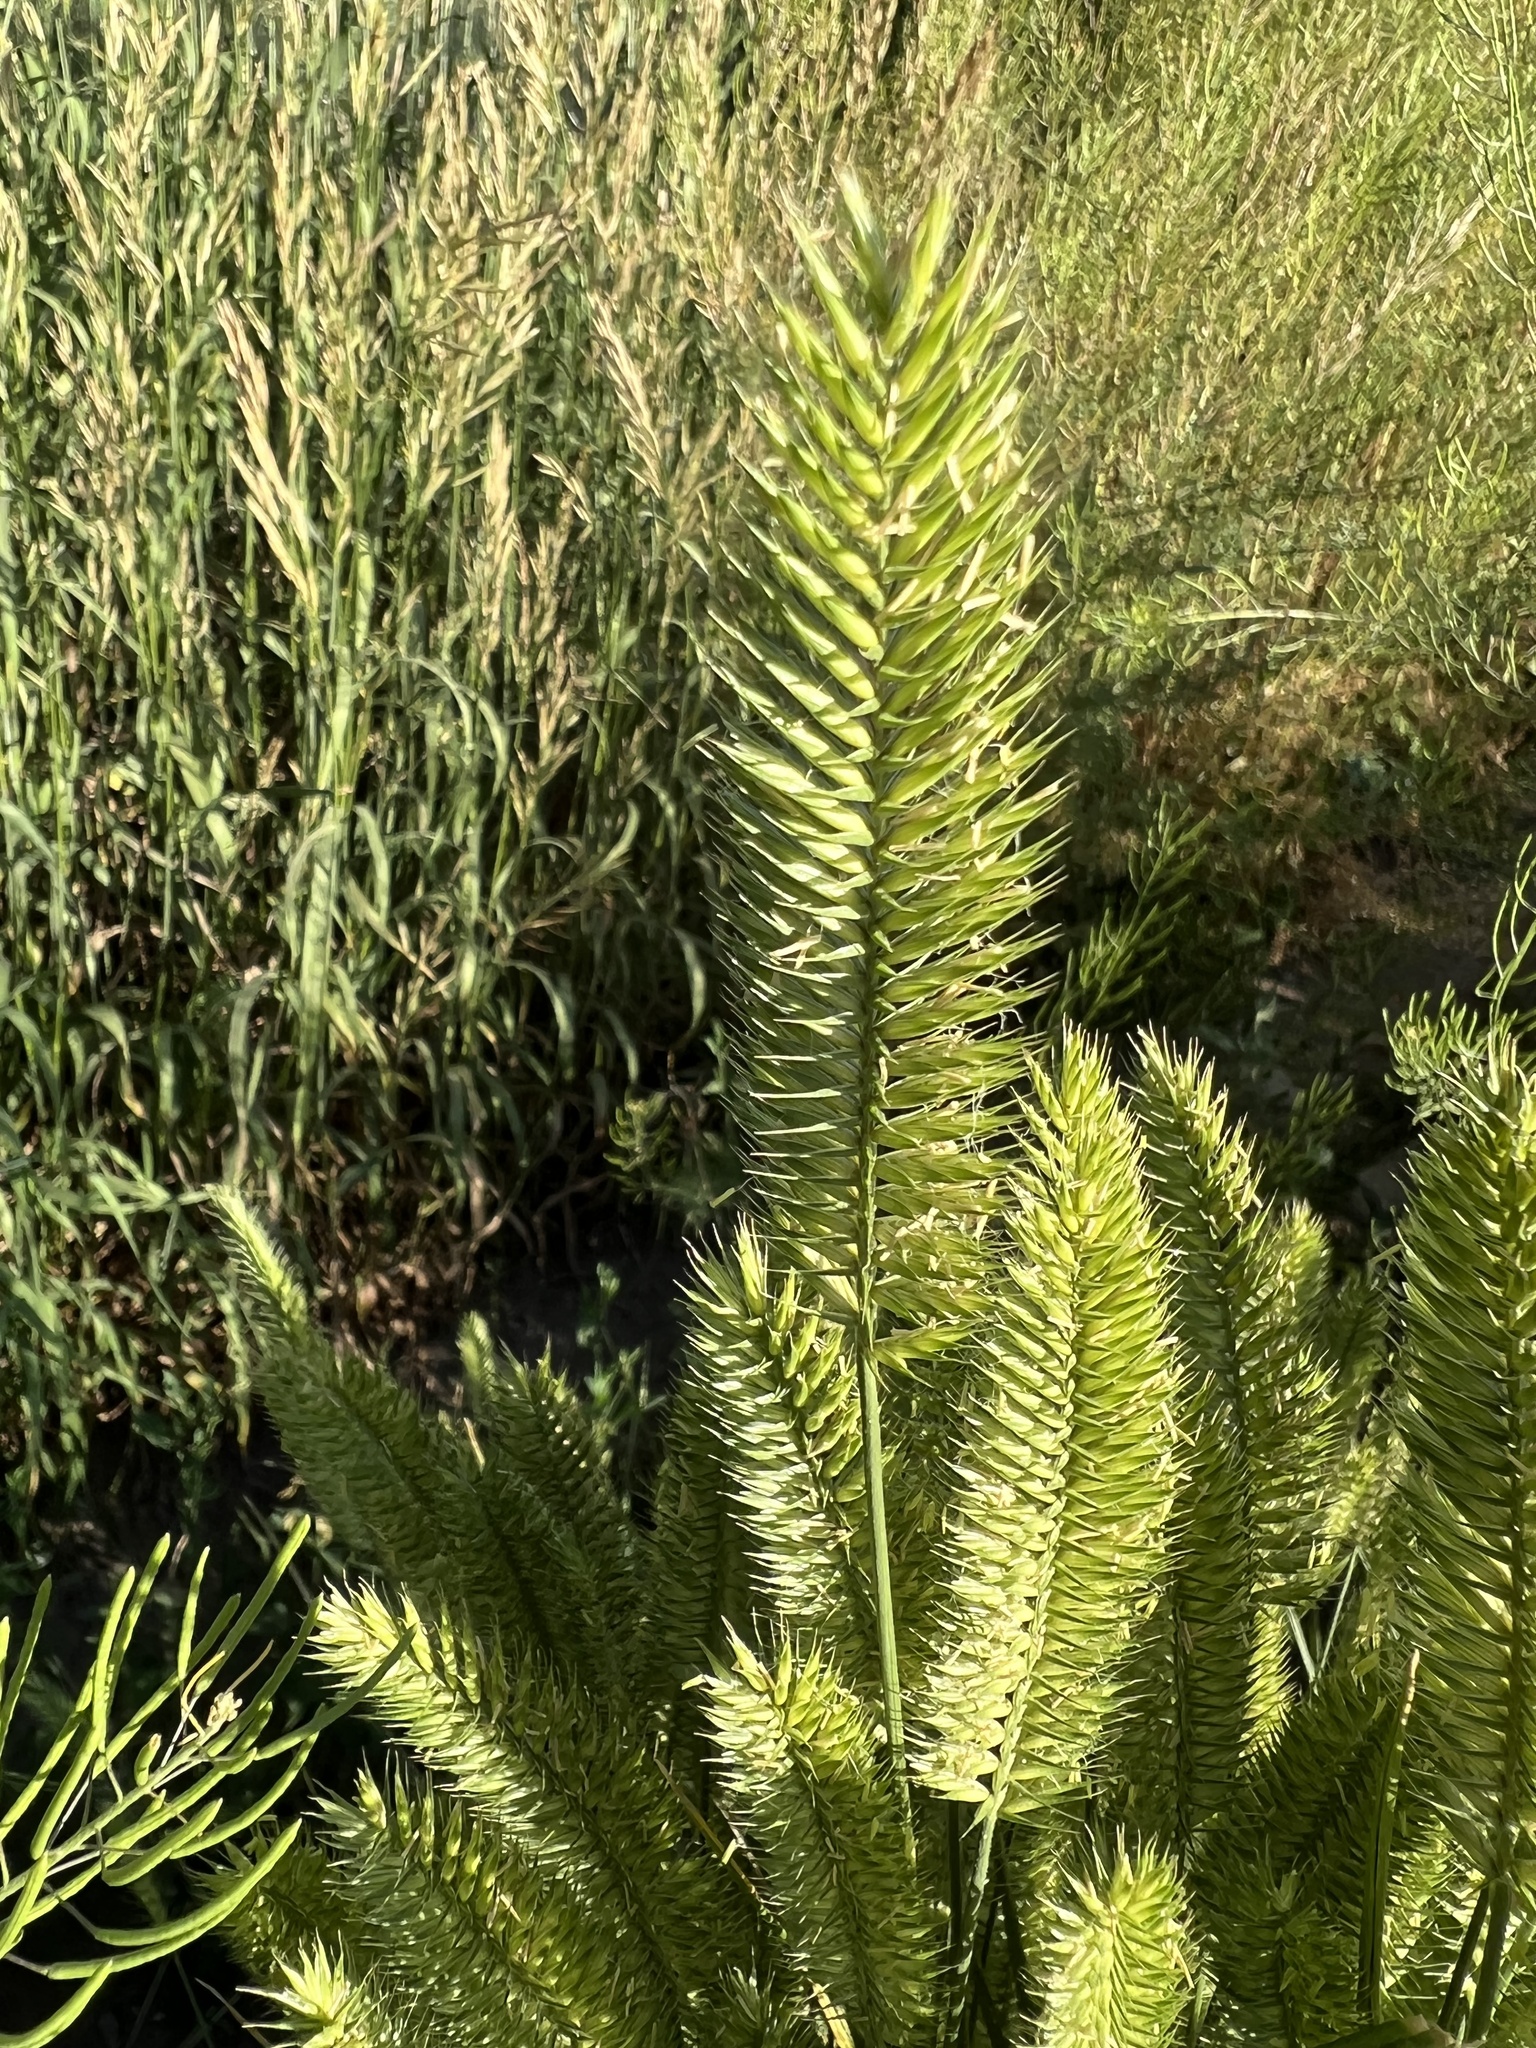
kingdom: Plantae
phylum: Tracheophyta
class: Liliopsida
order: Poales
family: Poaceae
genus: Agropyron
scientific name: Agropyron cristatum
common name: Crested wheatgrass
